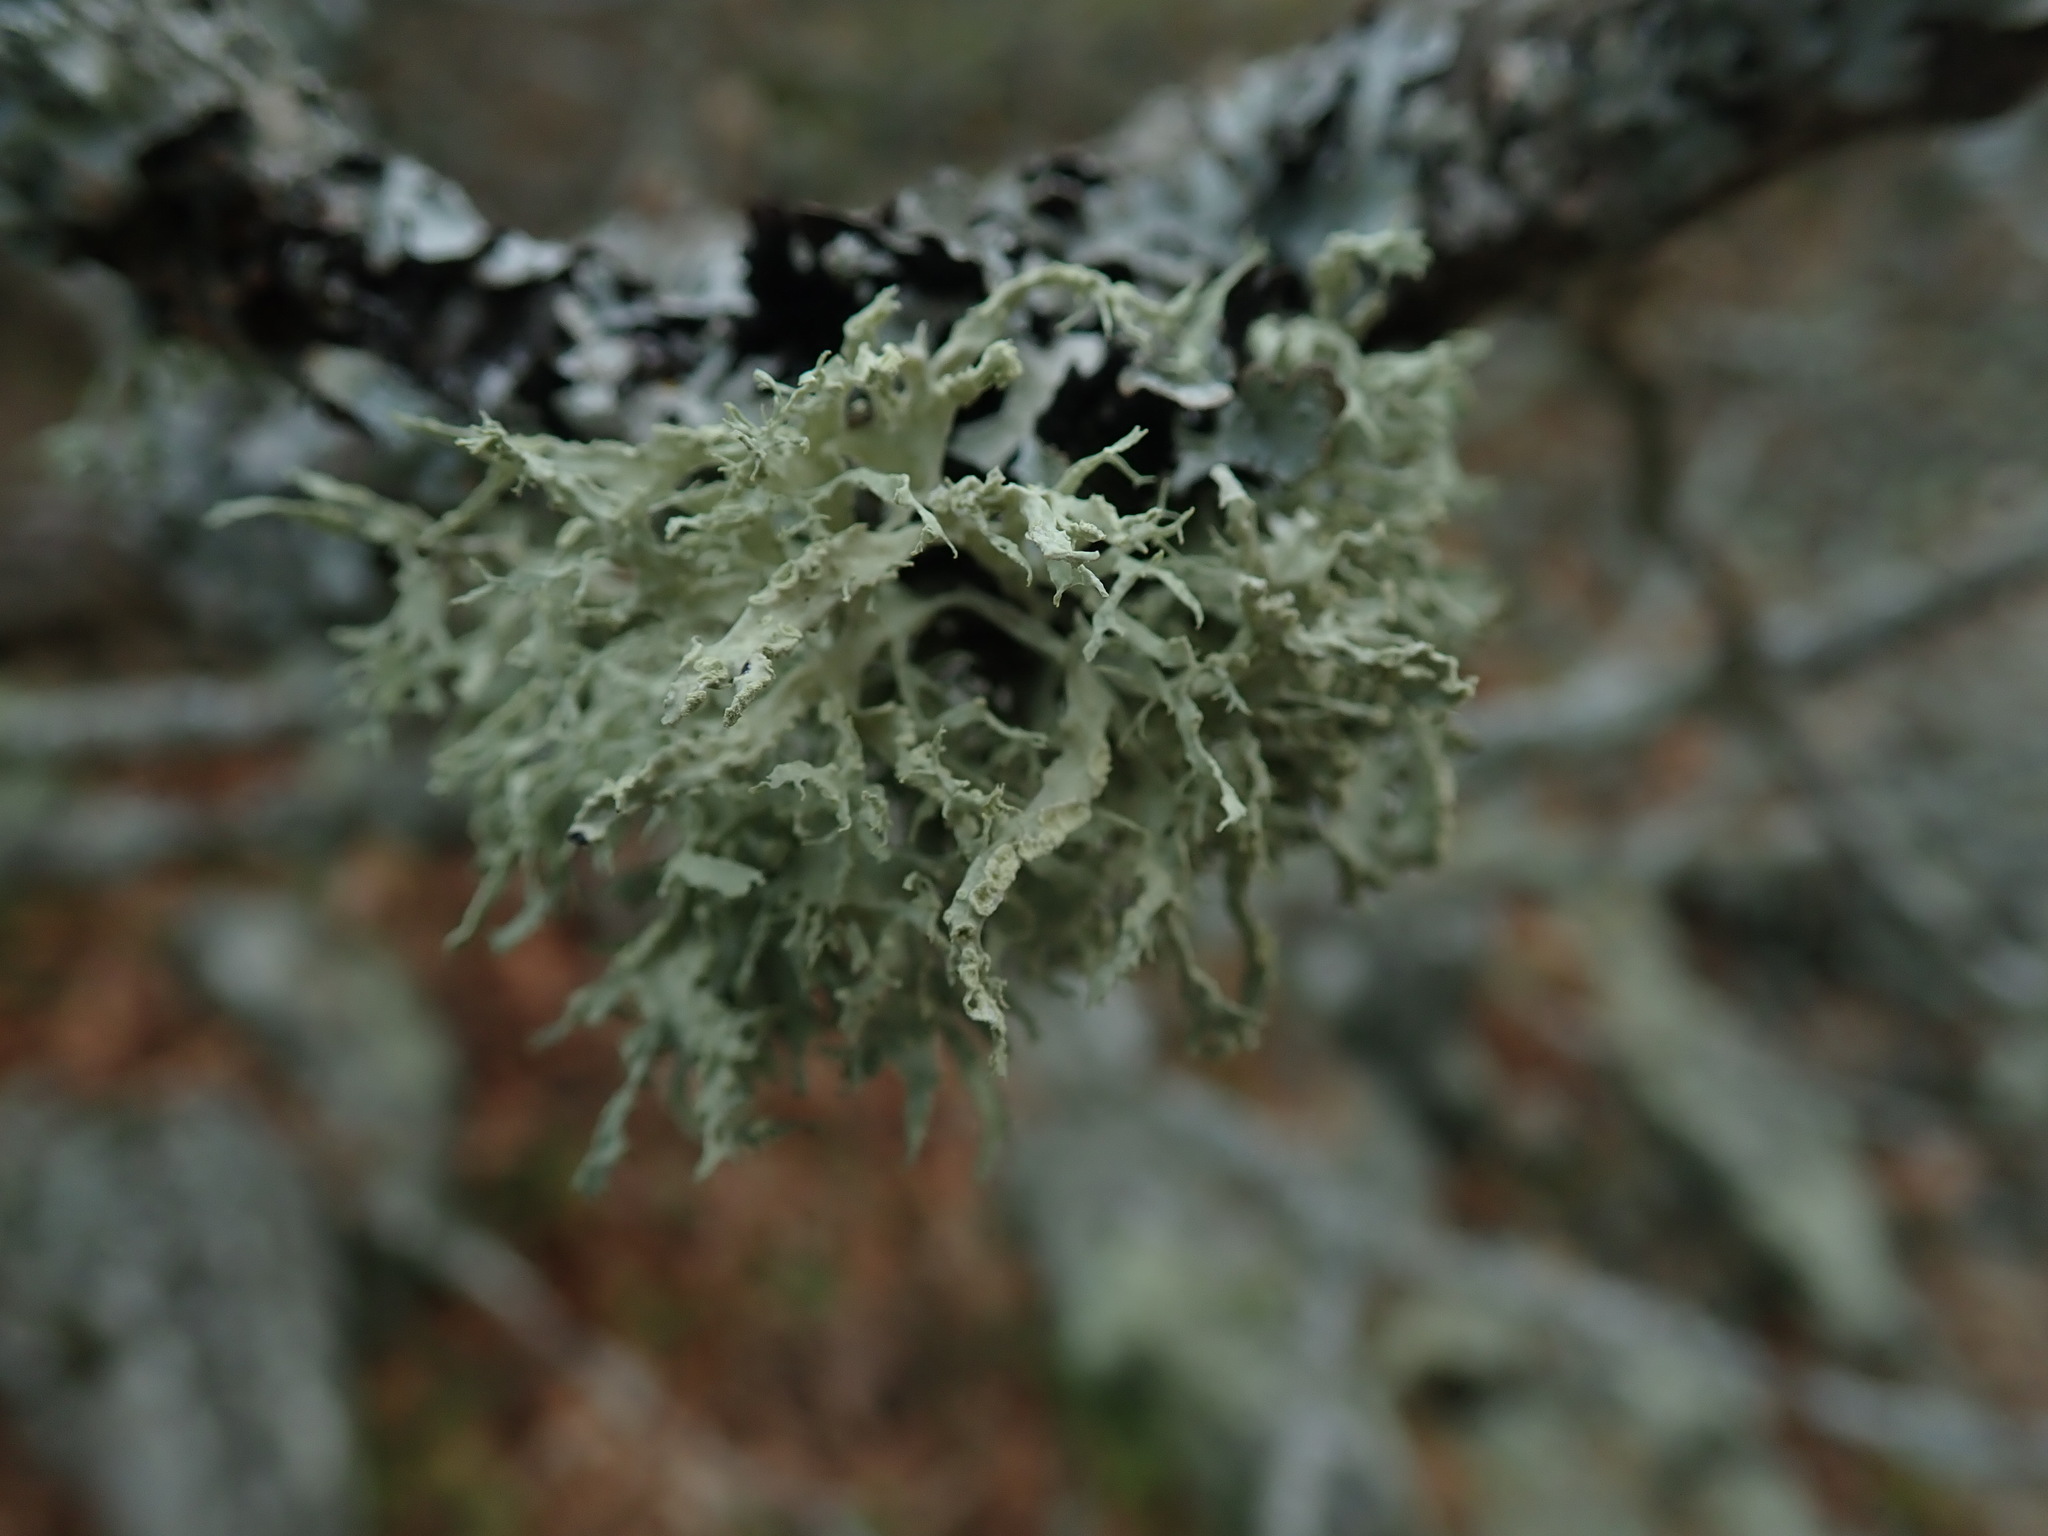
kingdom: Fungi
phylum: Ascomycota
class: Lecanoromycetes
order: Lecanorales
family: Ramalinaceae
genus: Ramalina
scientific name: Ramalina farinacea
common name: Farinose cartilage lichen
